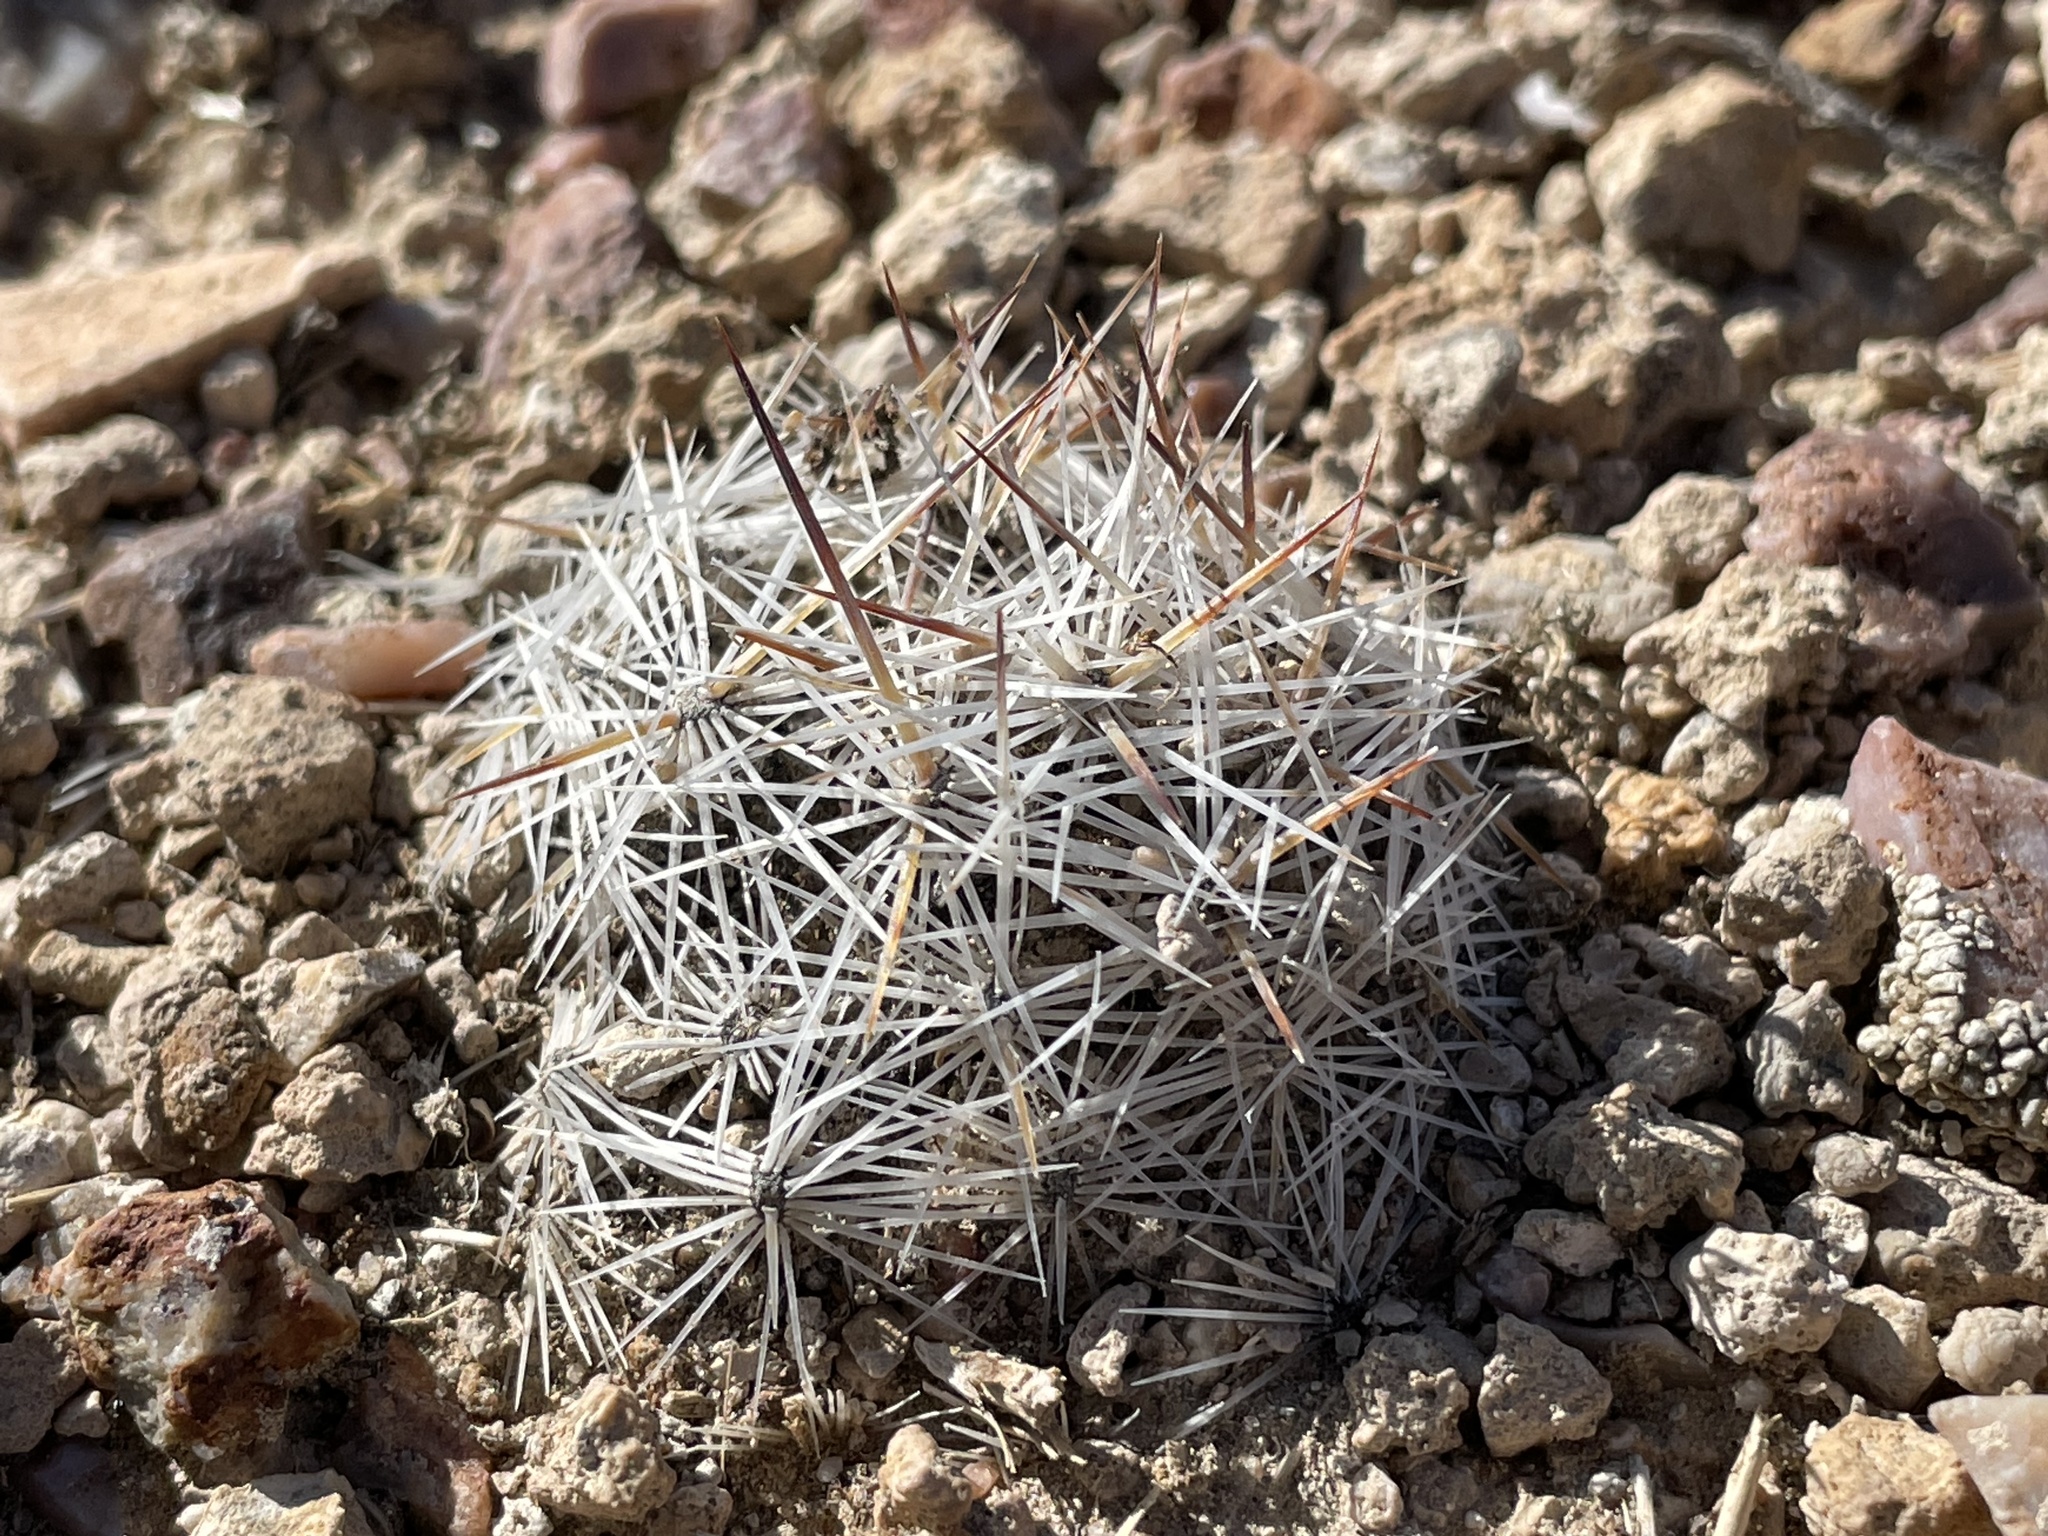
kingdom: Plantae
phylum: Tracheophyta
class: Magnoliopsida
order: Caryophyllales
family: Cactaceae
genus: Pelecyphora
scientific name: Pelecyphora vivipara
